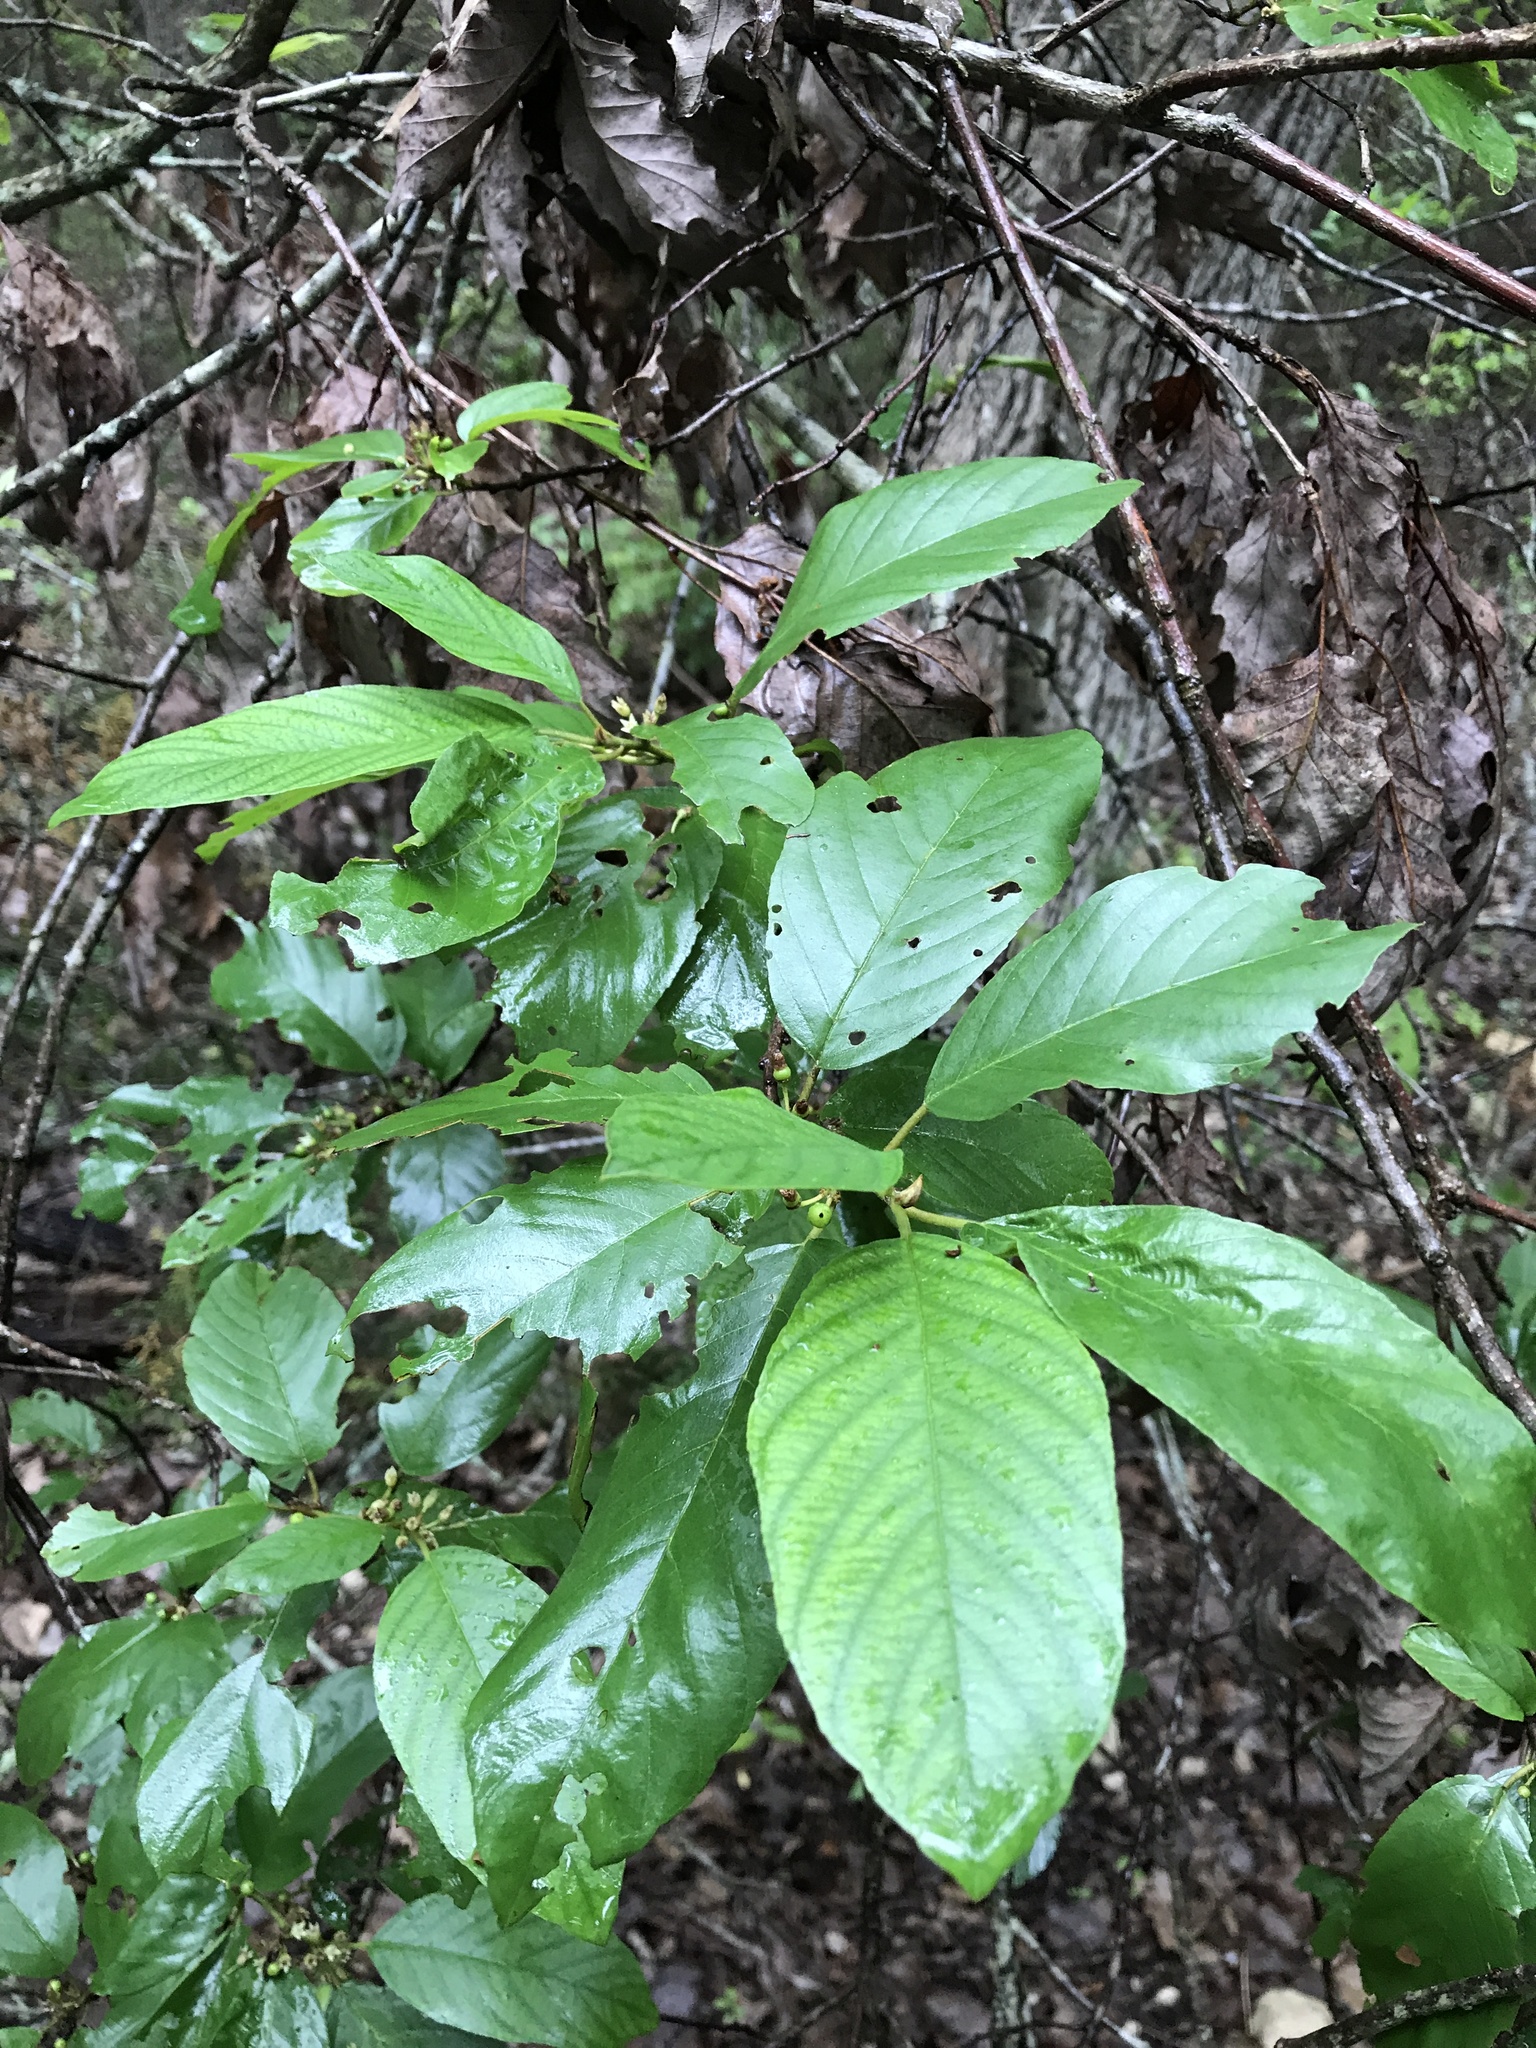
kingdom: Plantae
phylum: Tracheophyta
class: Magnoliopsida
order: Rosales
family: Rhamnaceae
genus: Frangula
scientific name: Frangula caroliniana
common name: Carolina buckthorn
